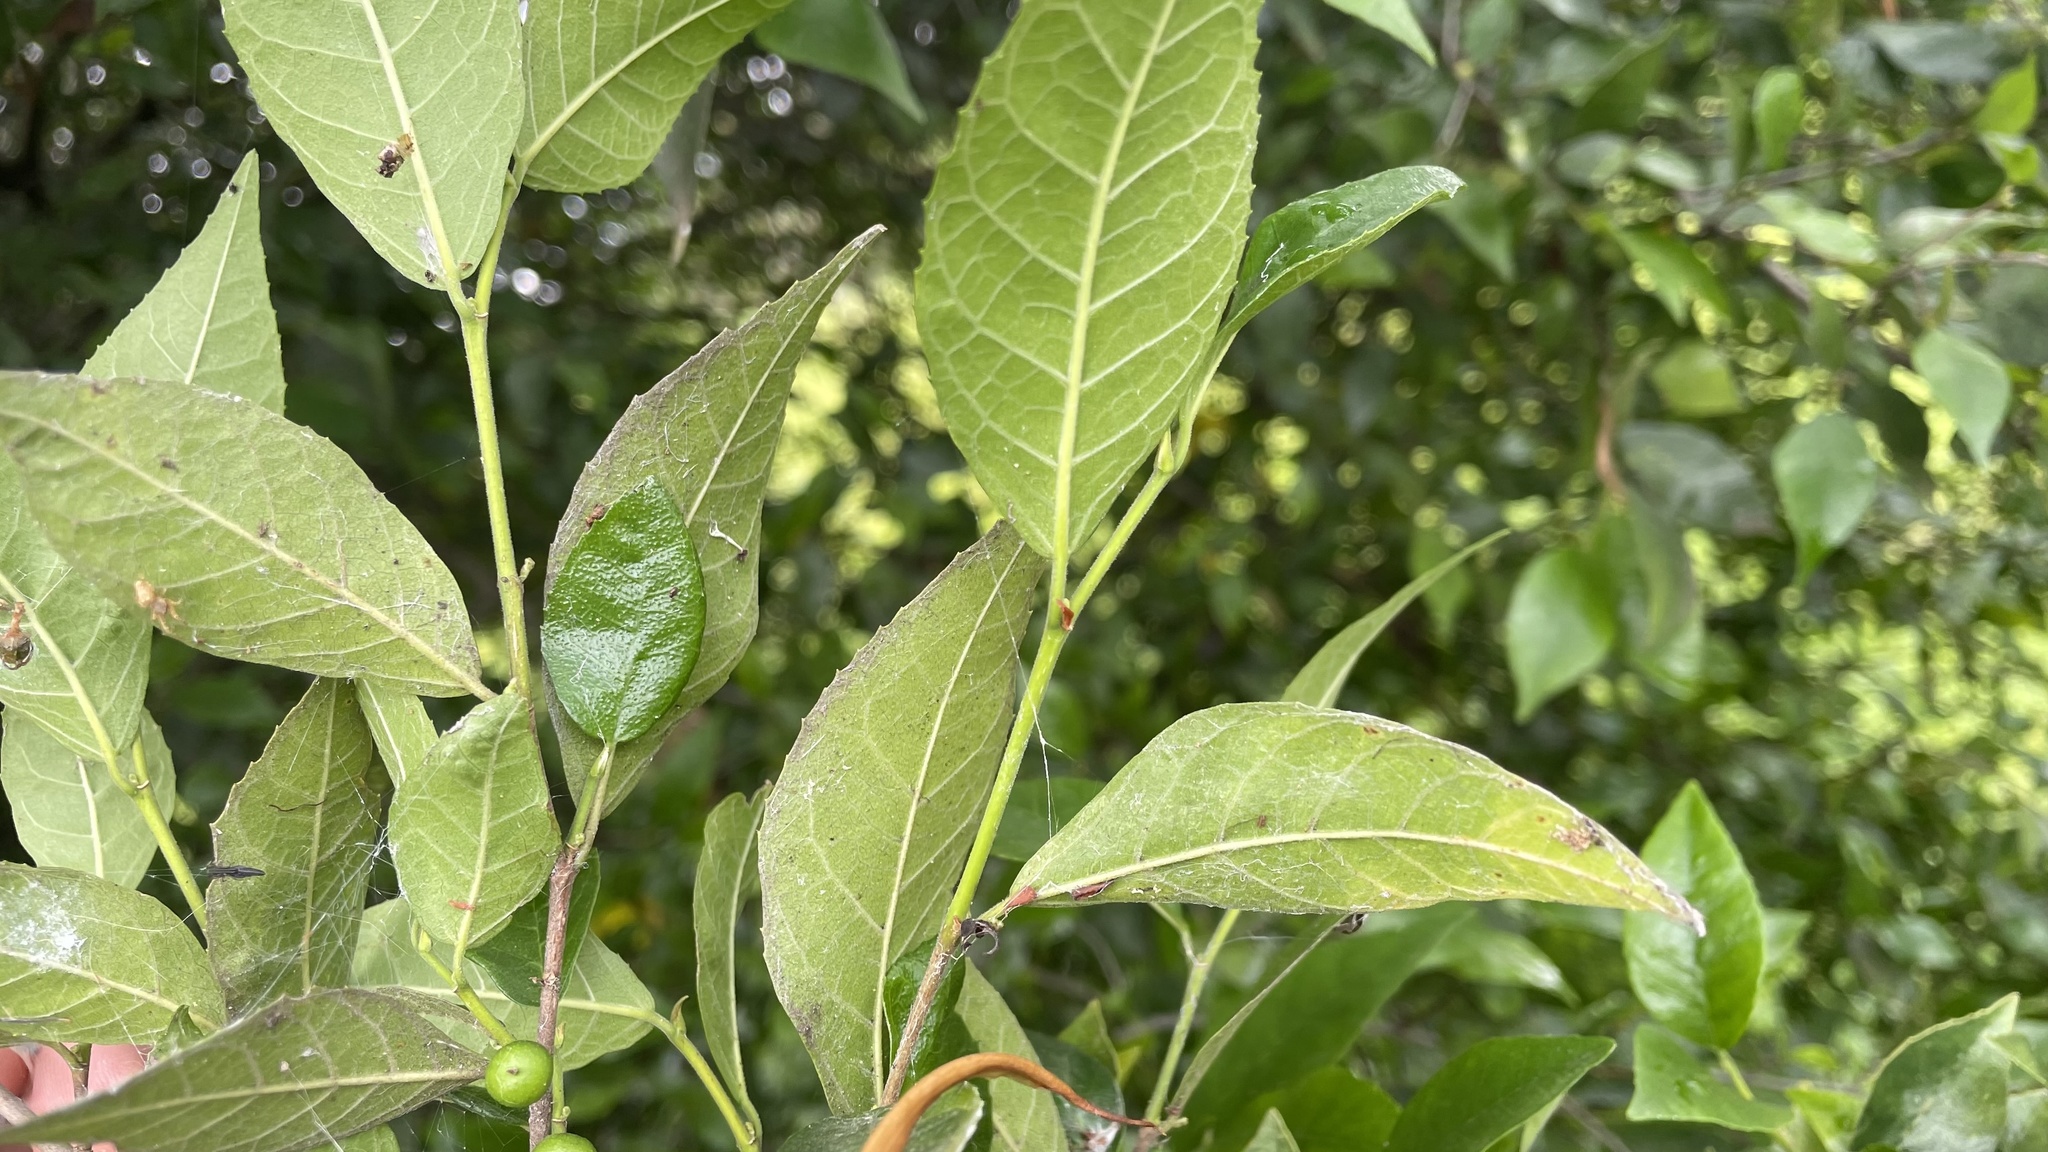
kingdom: Plantae
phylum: Tracheophyta
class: Magnoliopsida
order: Rosales
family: Moraceae
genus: Paratrophis
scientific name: Paratrophis pendulina
